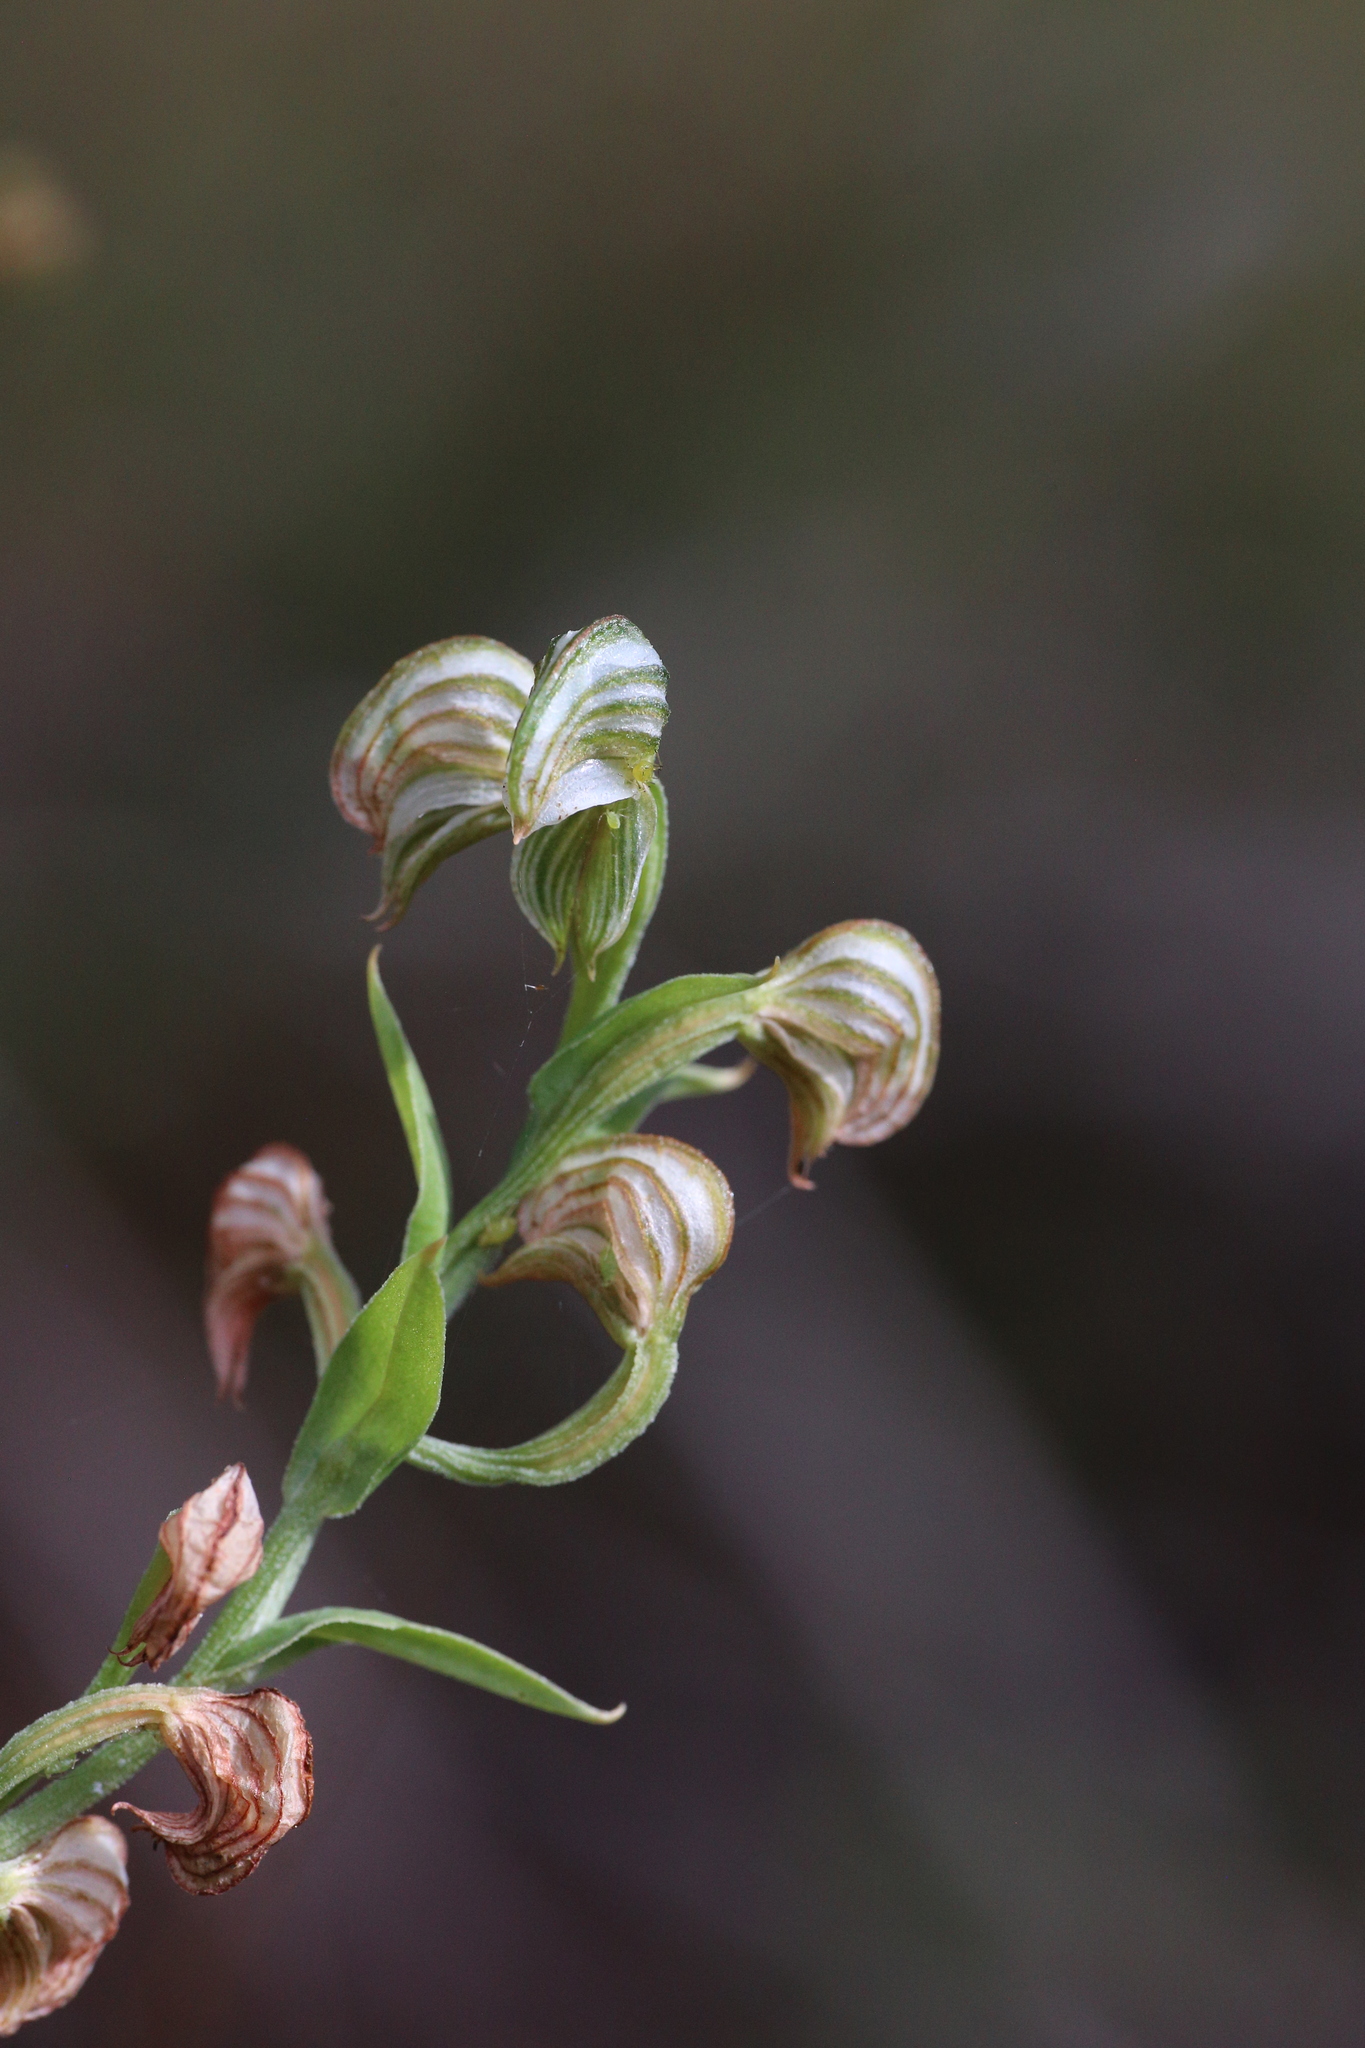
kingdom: Plantae
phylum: Tracheophyta
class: Liliopsida
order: Asparagales
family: Orchidaceae
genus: Pterostylis
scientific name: Pterostylis vittata
